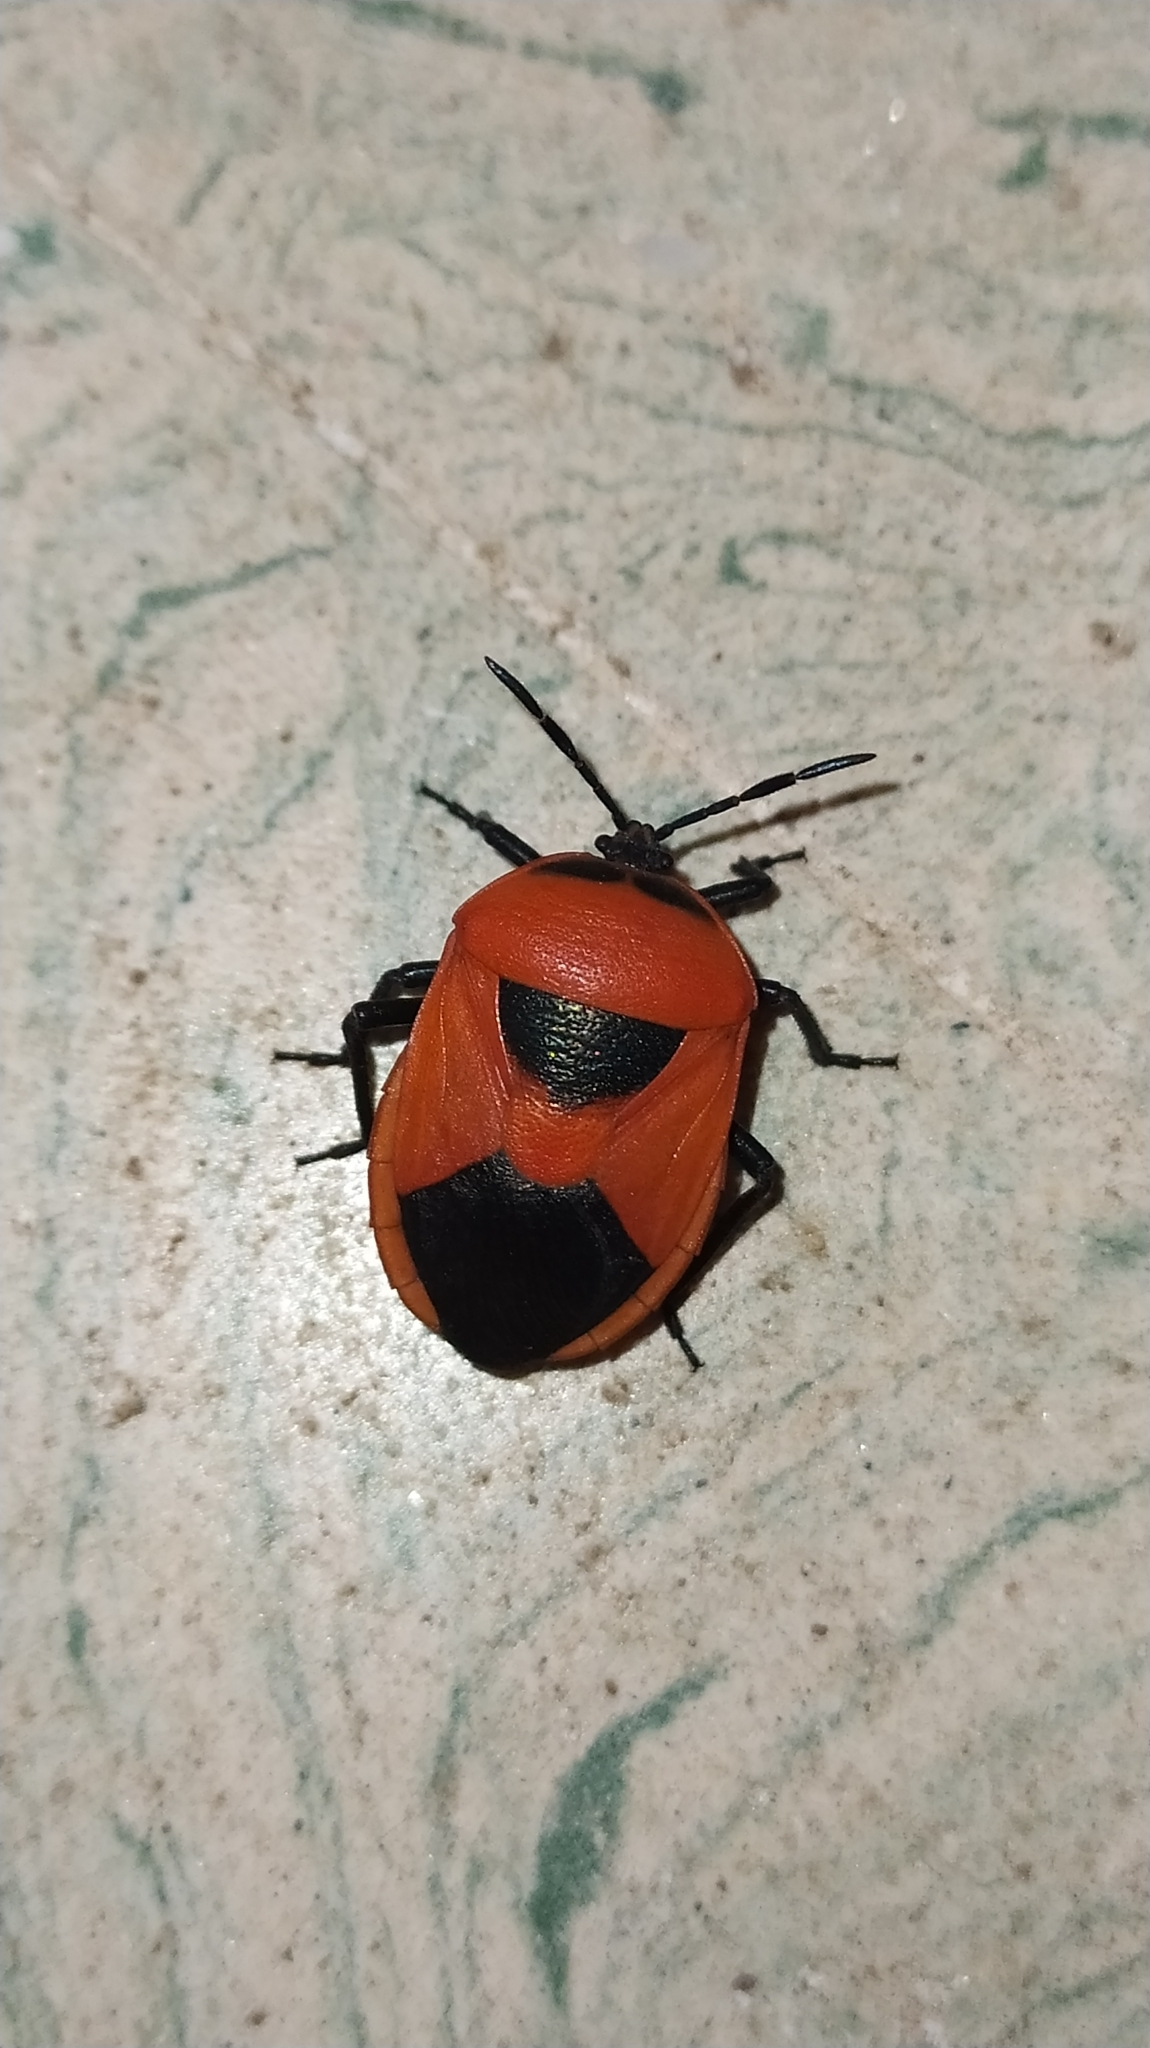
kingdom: Animalia
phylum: Arthropoda
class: Insecta
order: Hemiptera
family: Dinidoridae
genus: Coridius
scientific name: Coridius ianus
